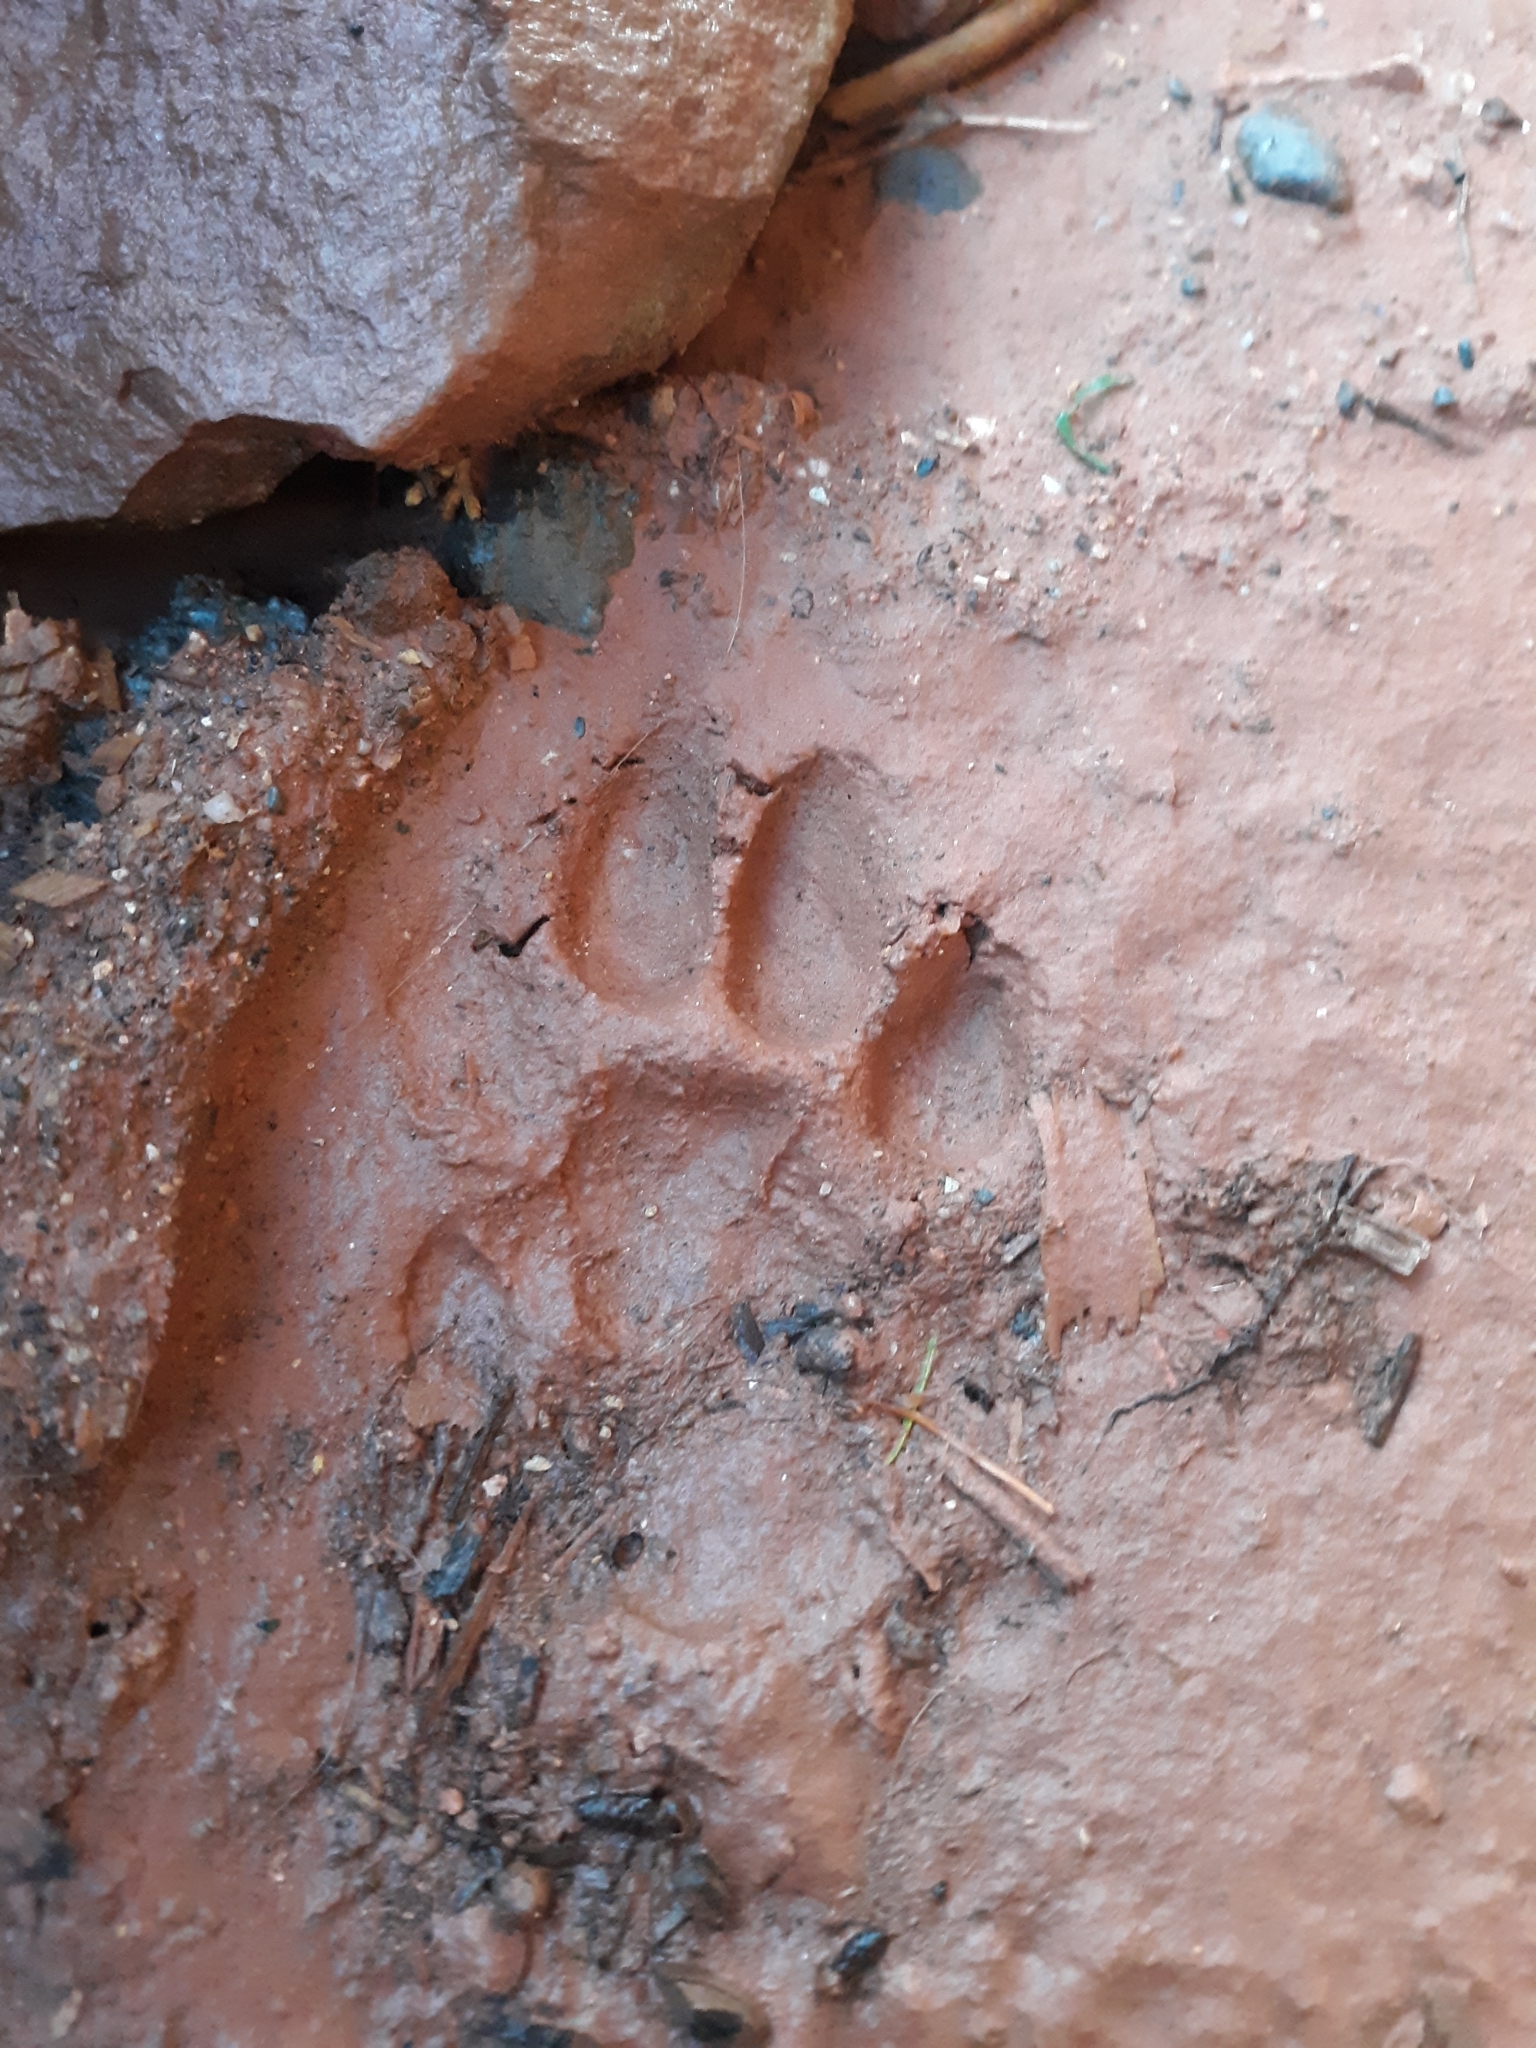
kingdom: Animalia
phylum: Chordata
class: Mammalia
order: Carnivora
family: Felidae
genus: Lynx
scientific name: Lynx rufus
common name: Bobcat
